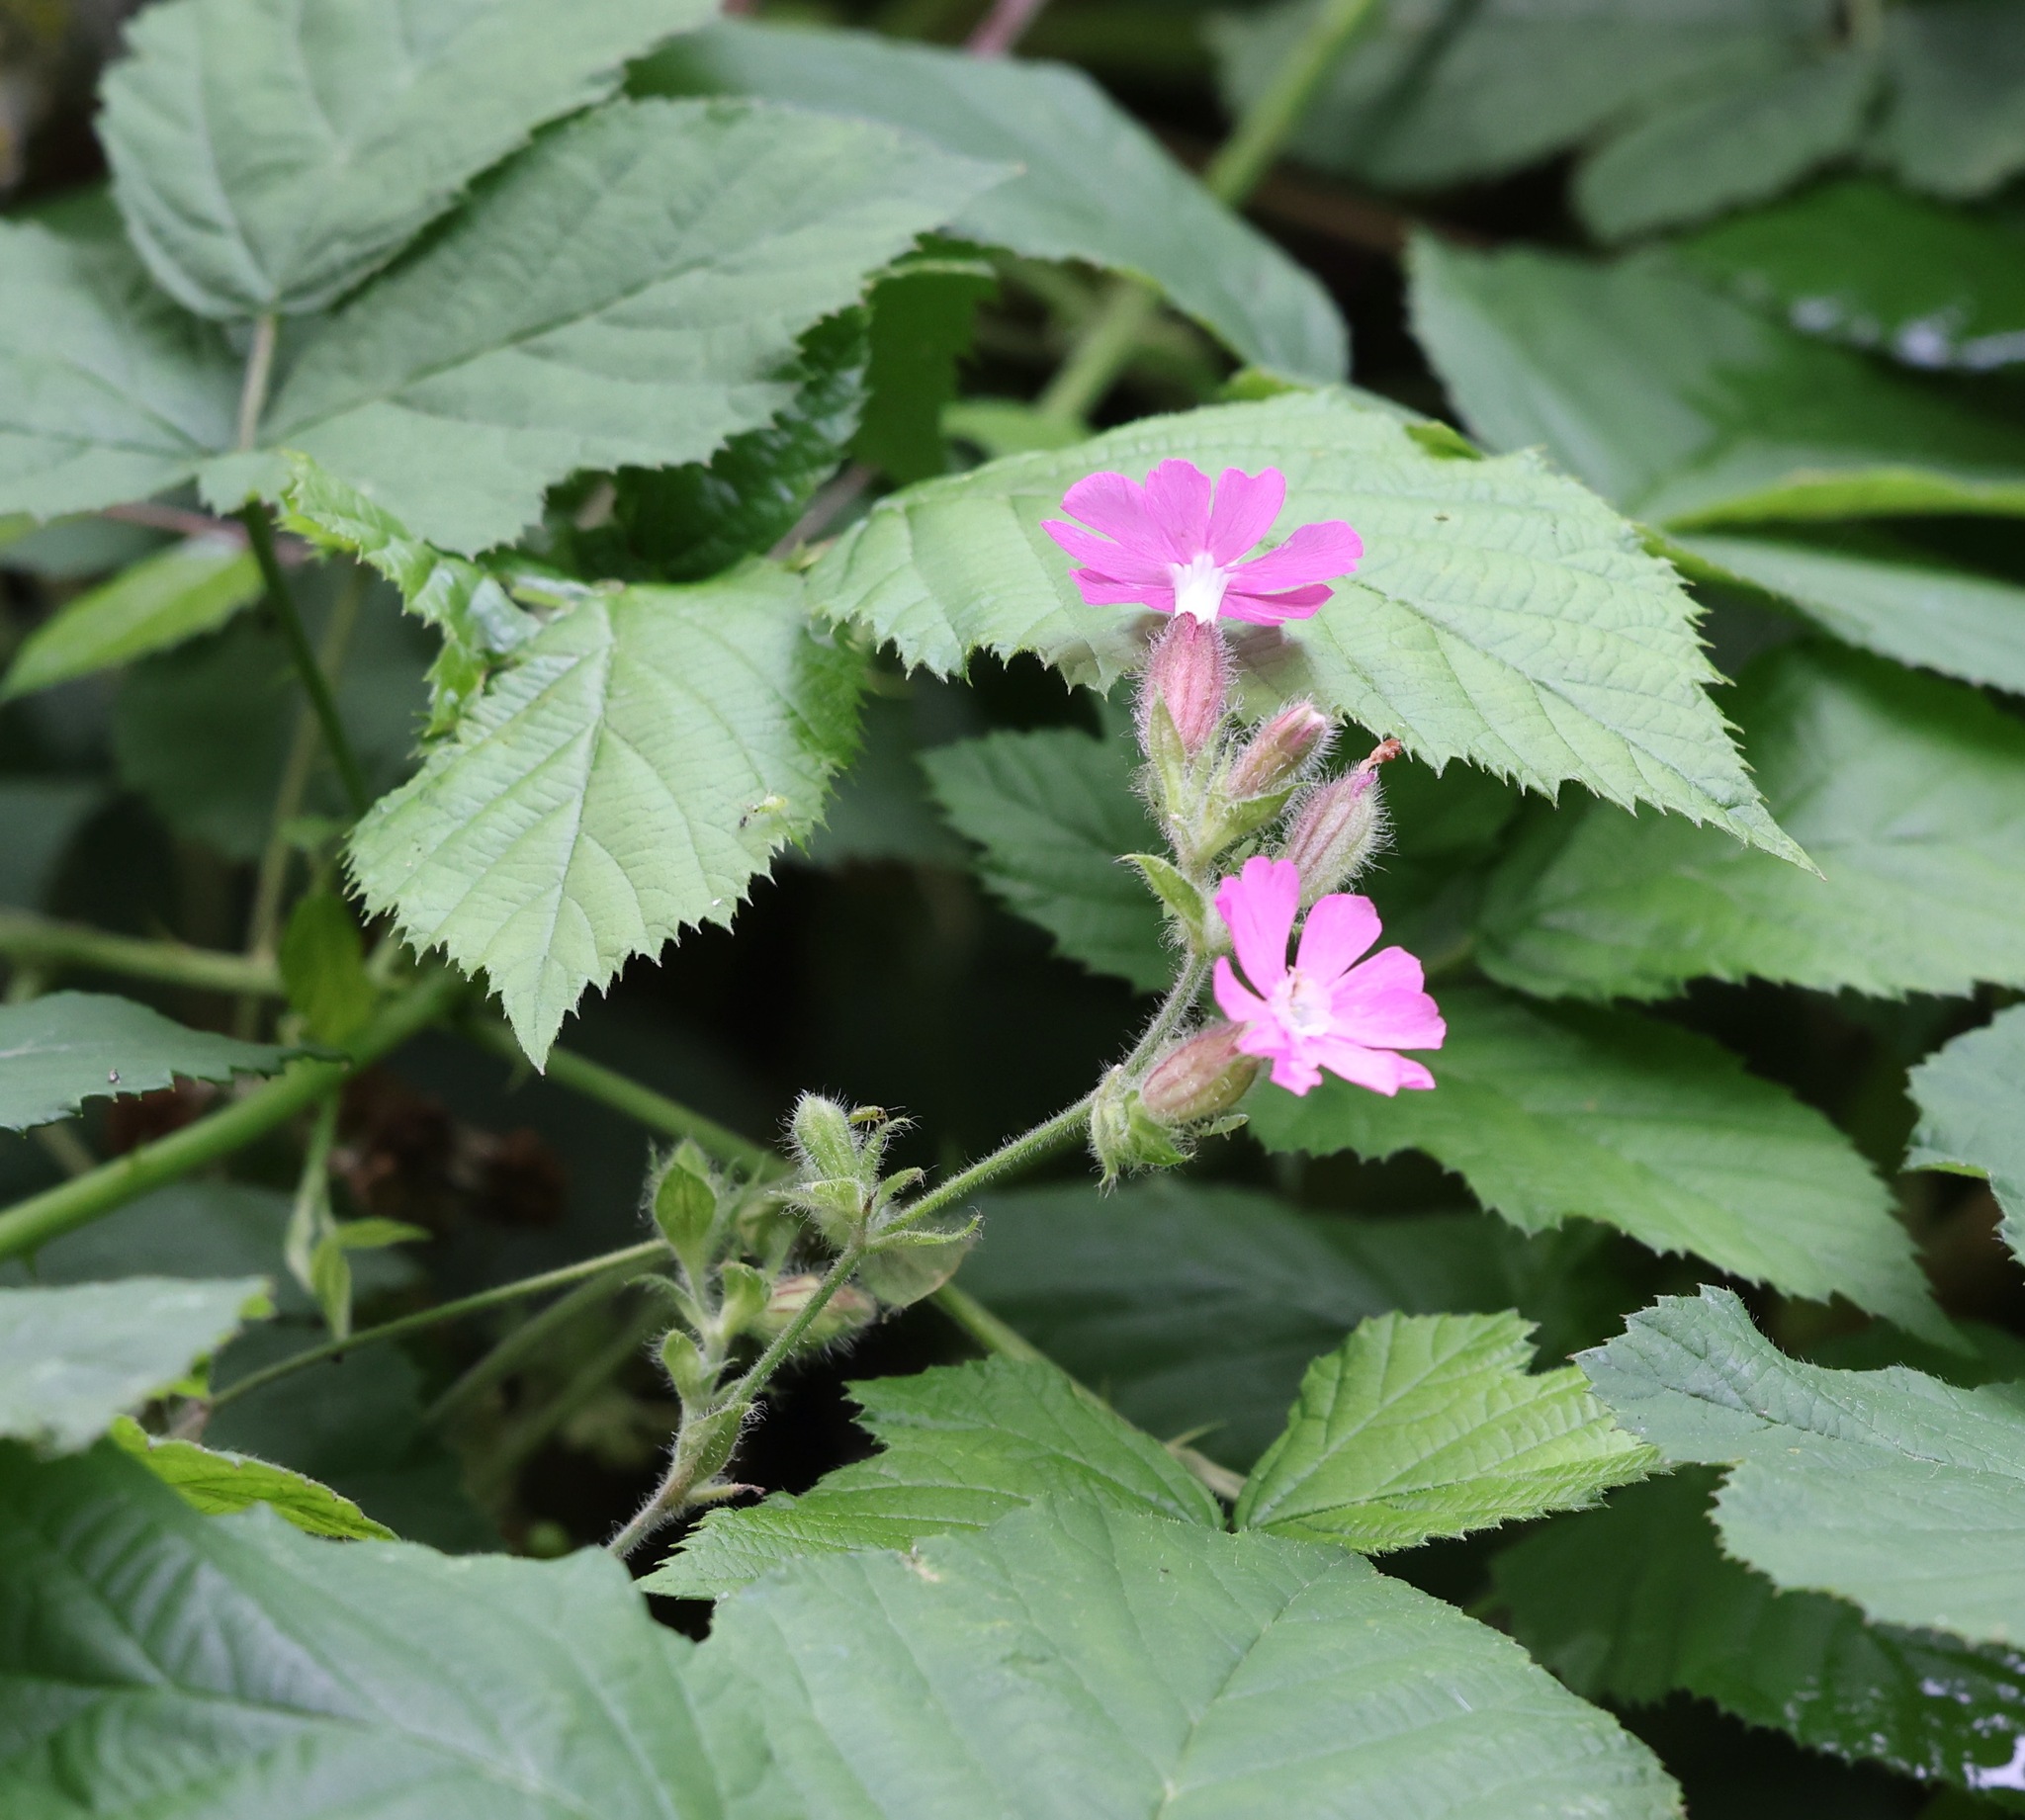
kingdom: Plantae
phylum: Tracheophyta
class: Magnoliopsida
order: Caryophyllales
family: Caryophyllaceae
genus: Silene
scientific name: Silene dioica
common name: Red campion
